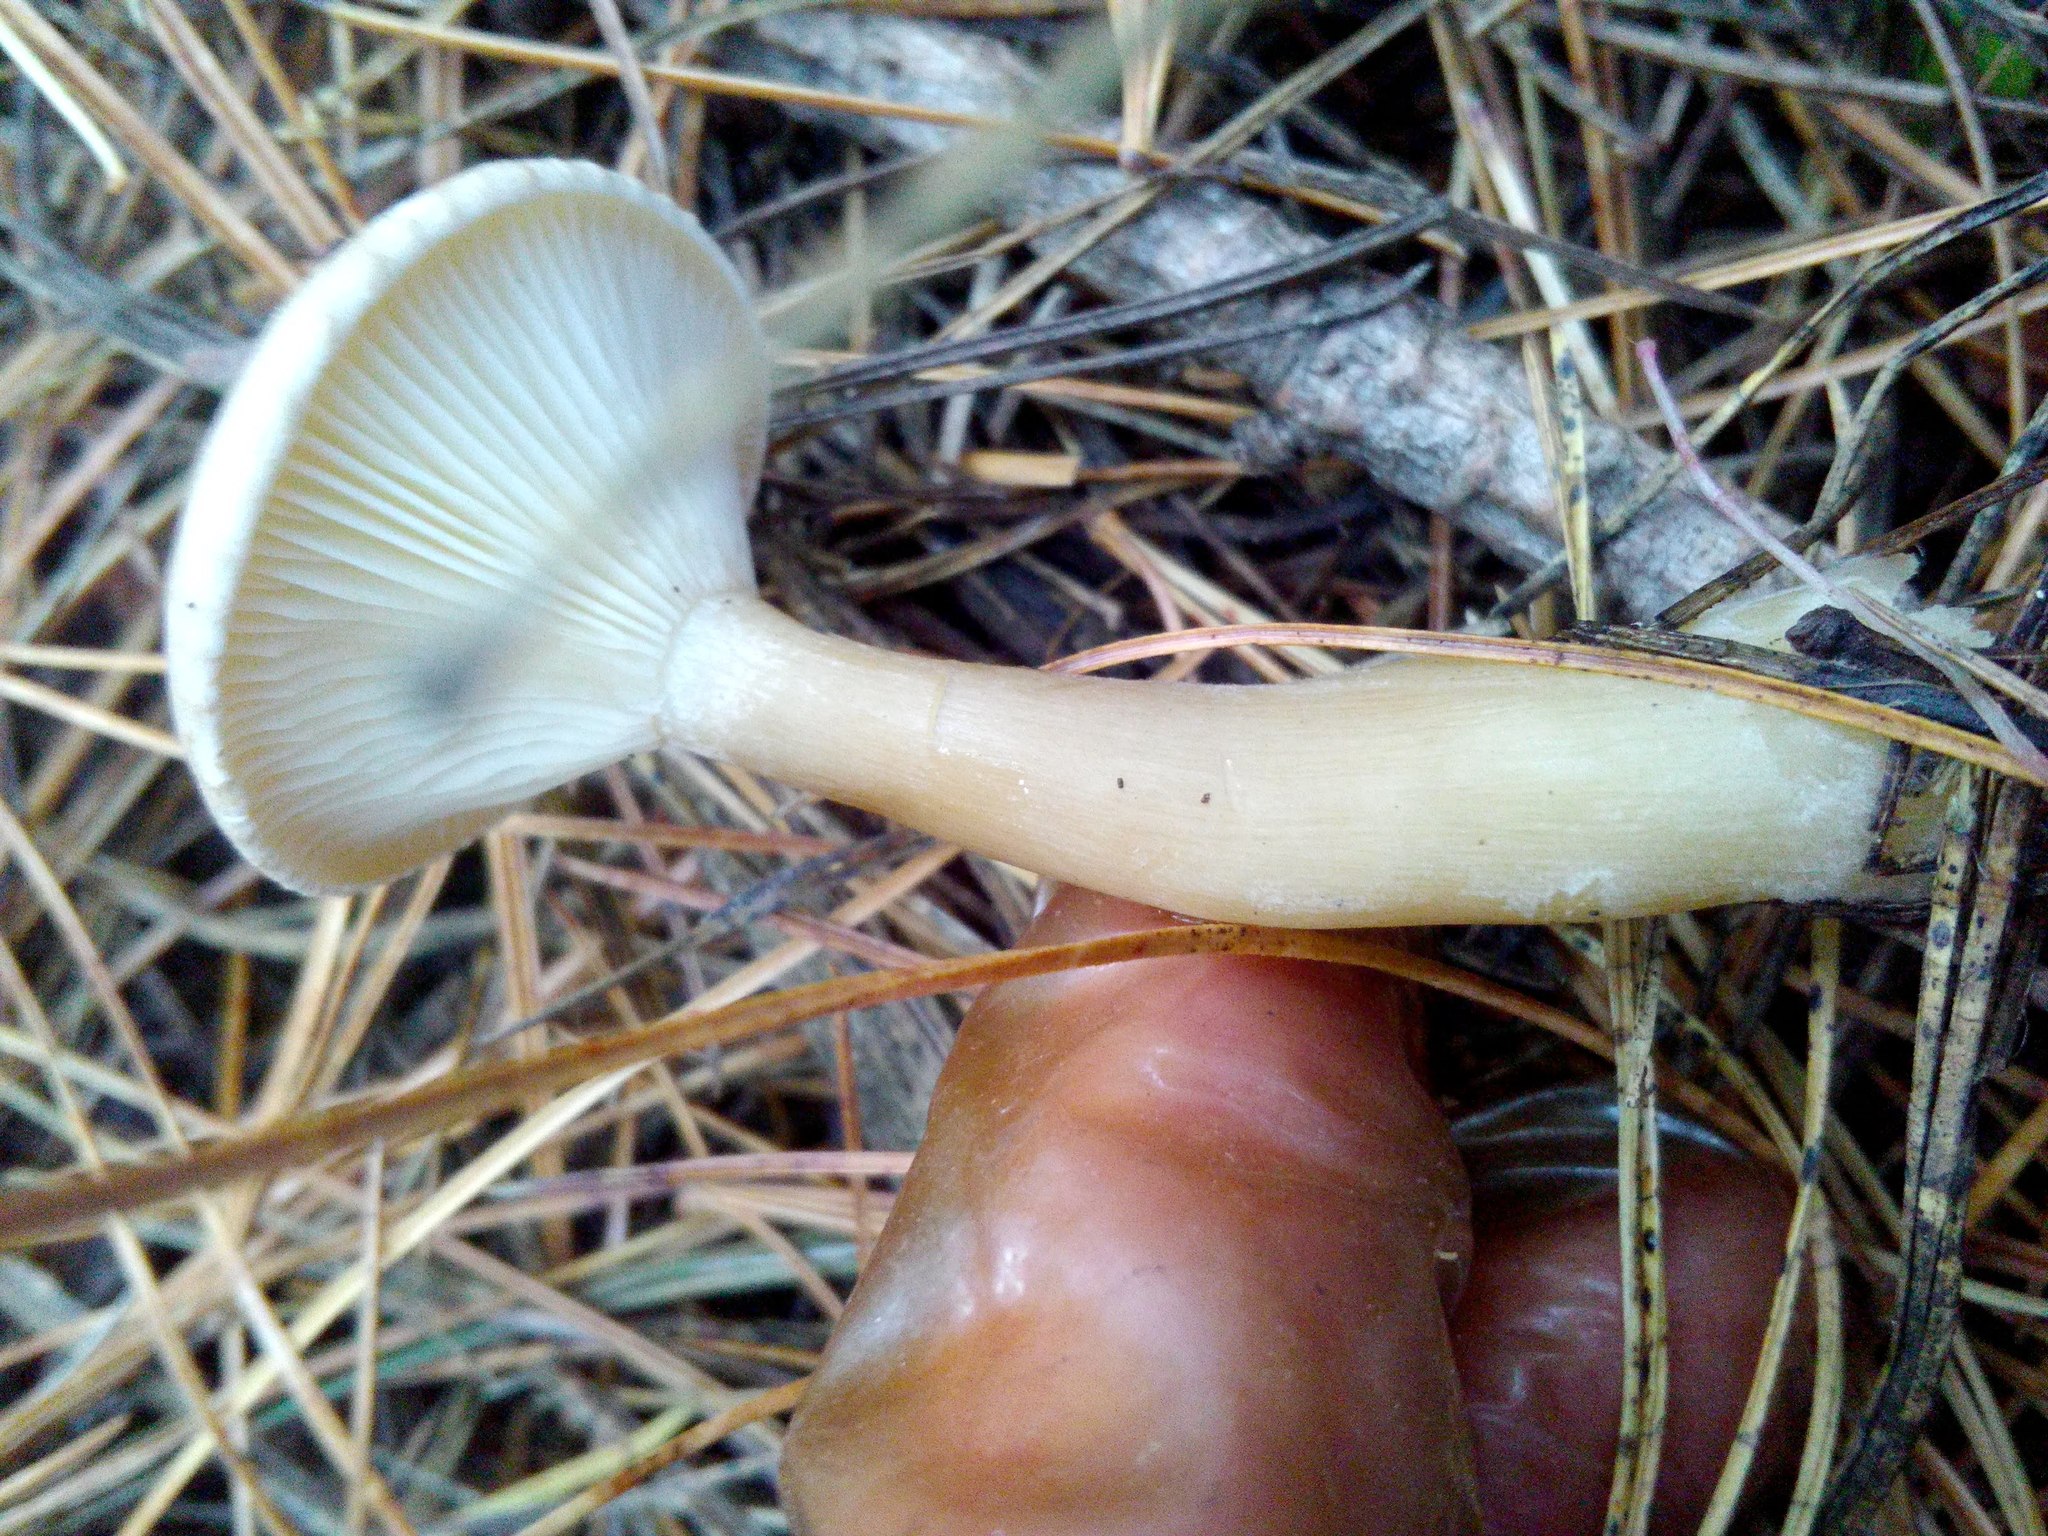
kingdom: Fungi
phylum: Basidiomycota
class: Agaricomycetes
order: Agaricales
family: Hygrophoraceae
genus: Ampulloclitocybe
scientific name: Ampulloclitocybe clavipes
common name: Club foot
